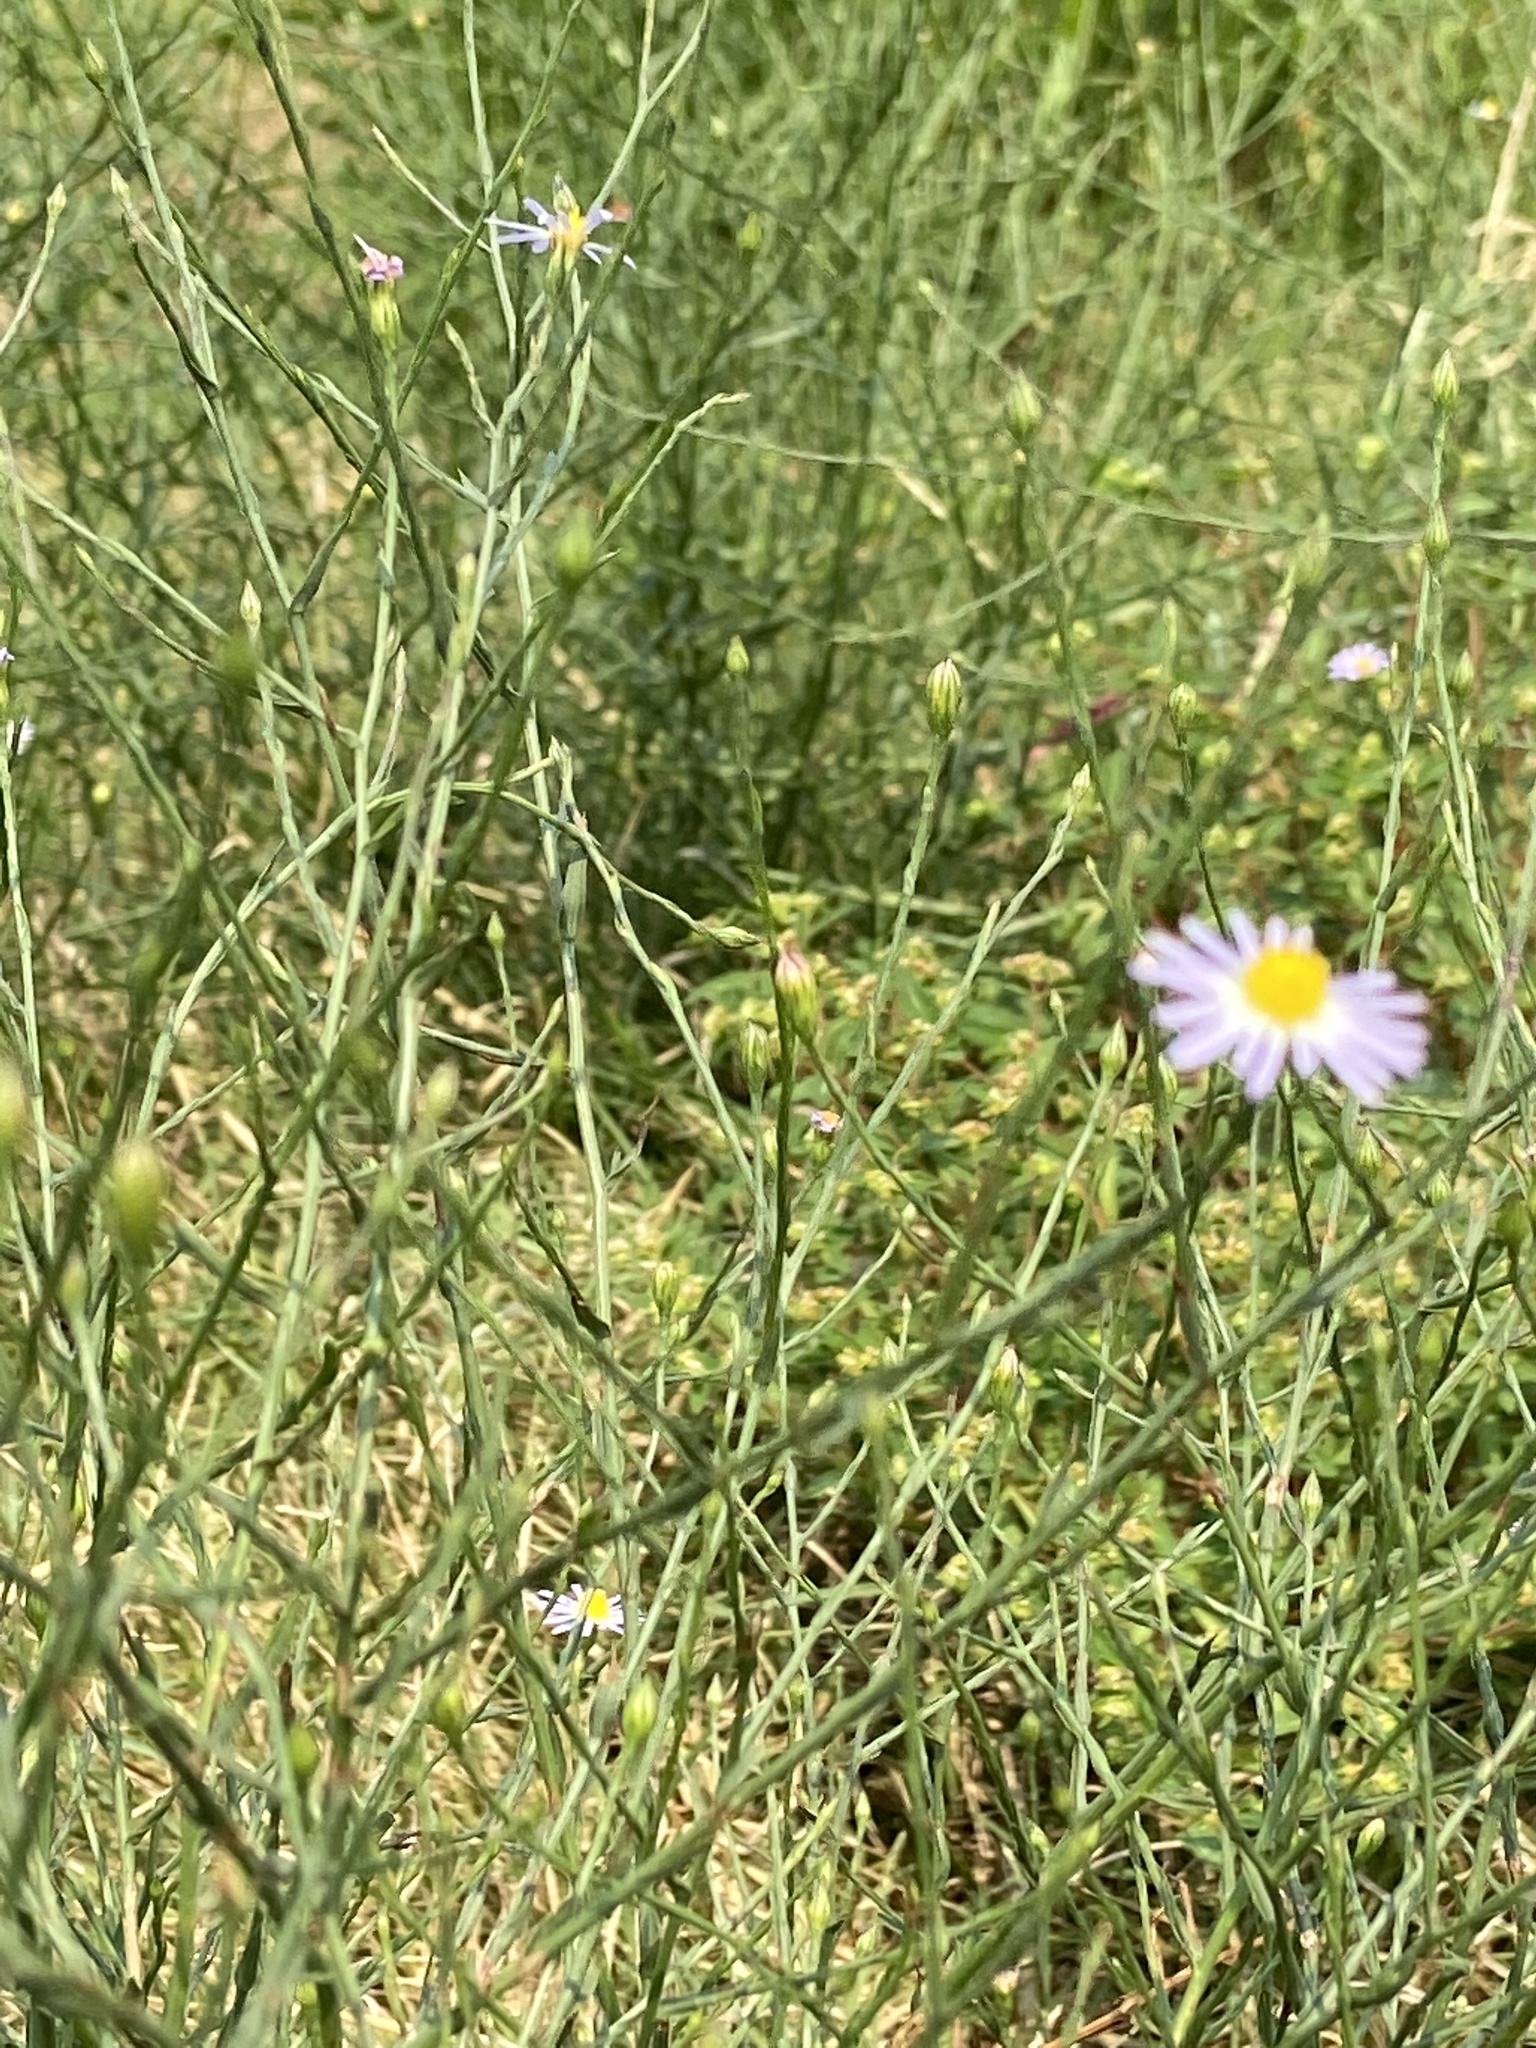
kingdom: Plantae
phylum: Tracheophyta
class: Magnoliopsida
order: Asterales
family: Asteraceae
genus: Symphyotrichum
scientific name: Symphyotrichum divaricatum
